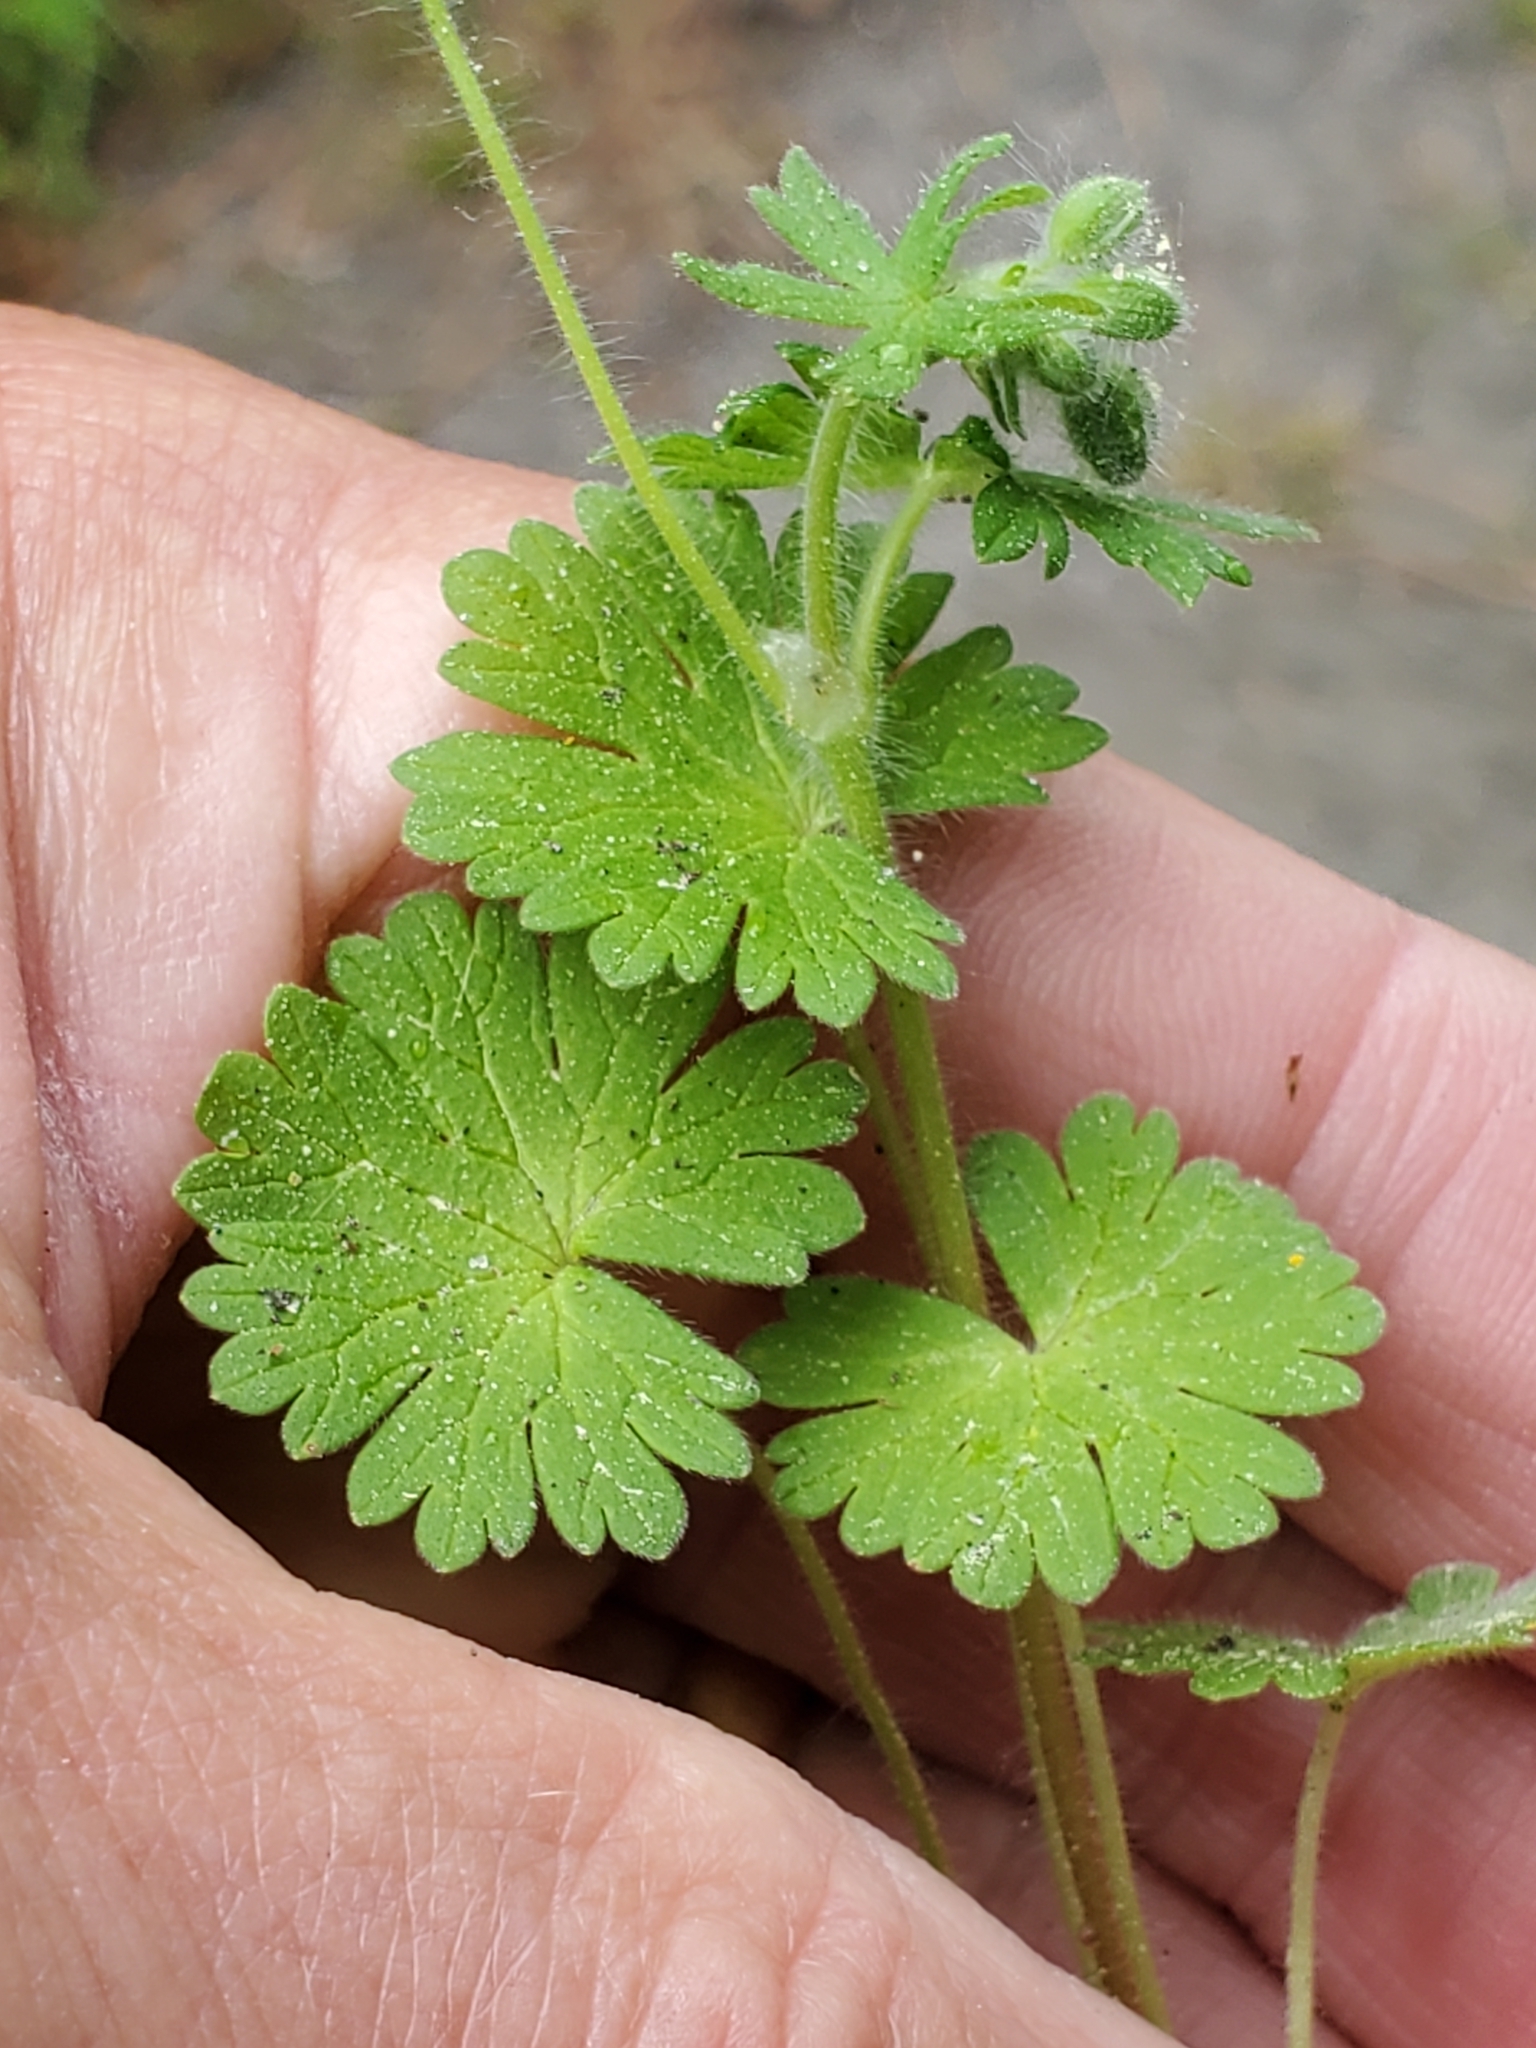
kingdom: Plantae
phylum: Tracheophyta
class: Magnoliopsida
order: Geraniales
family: Geraniaceae
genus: Geranium
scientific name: Geranium molle
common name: Dove's-foot crane's-bill
